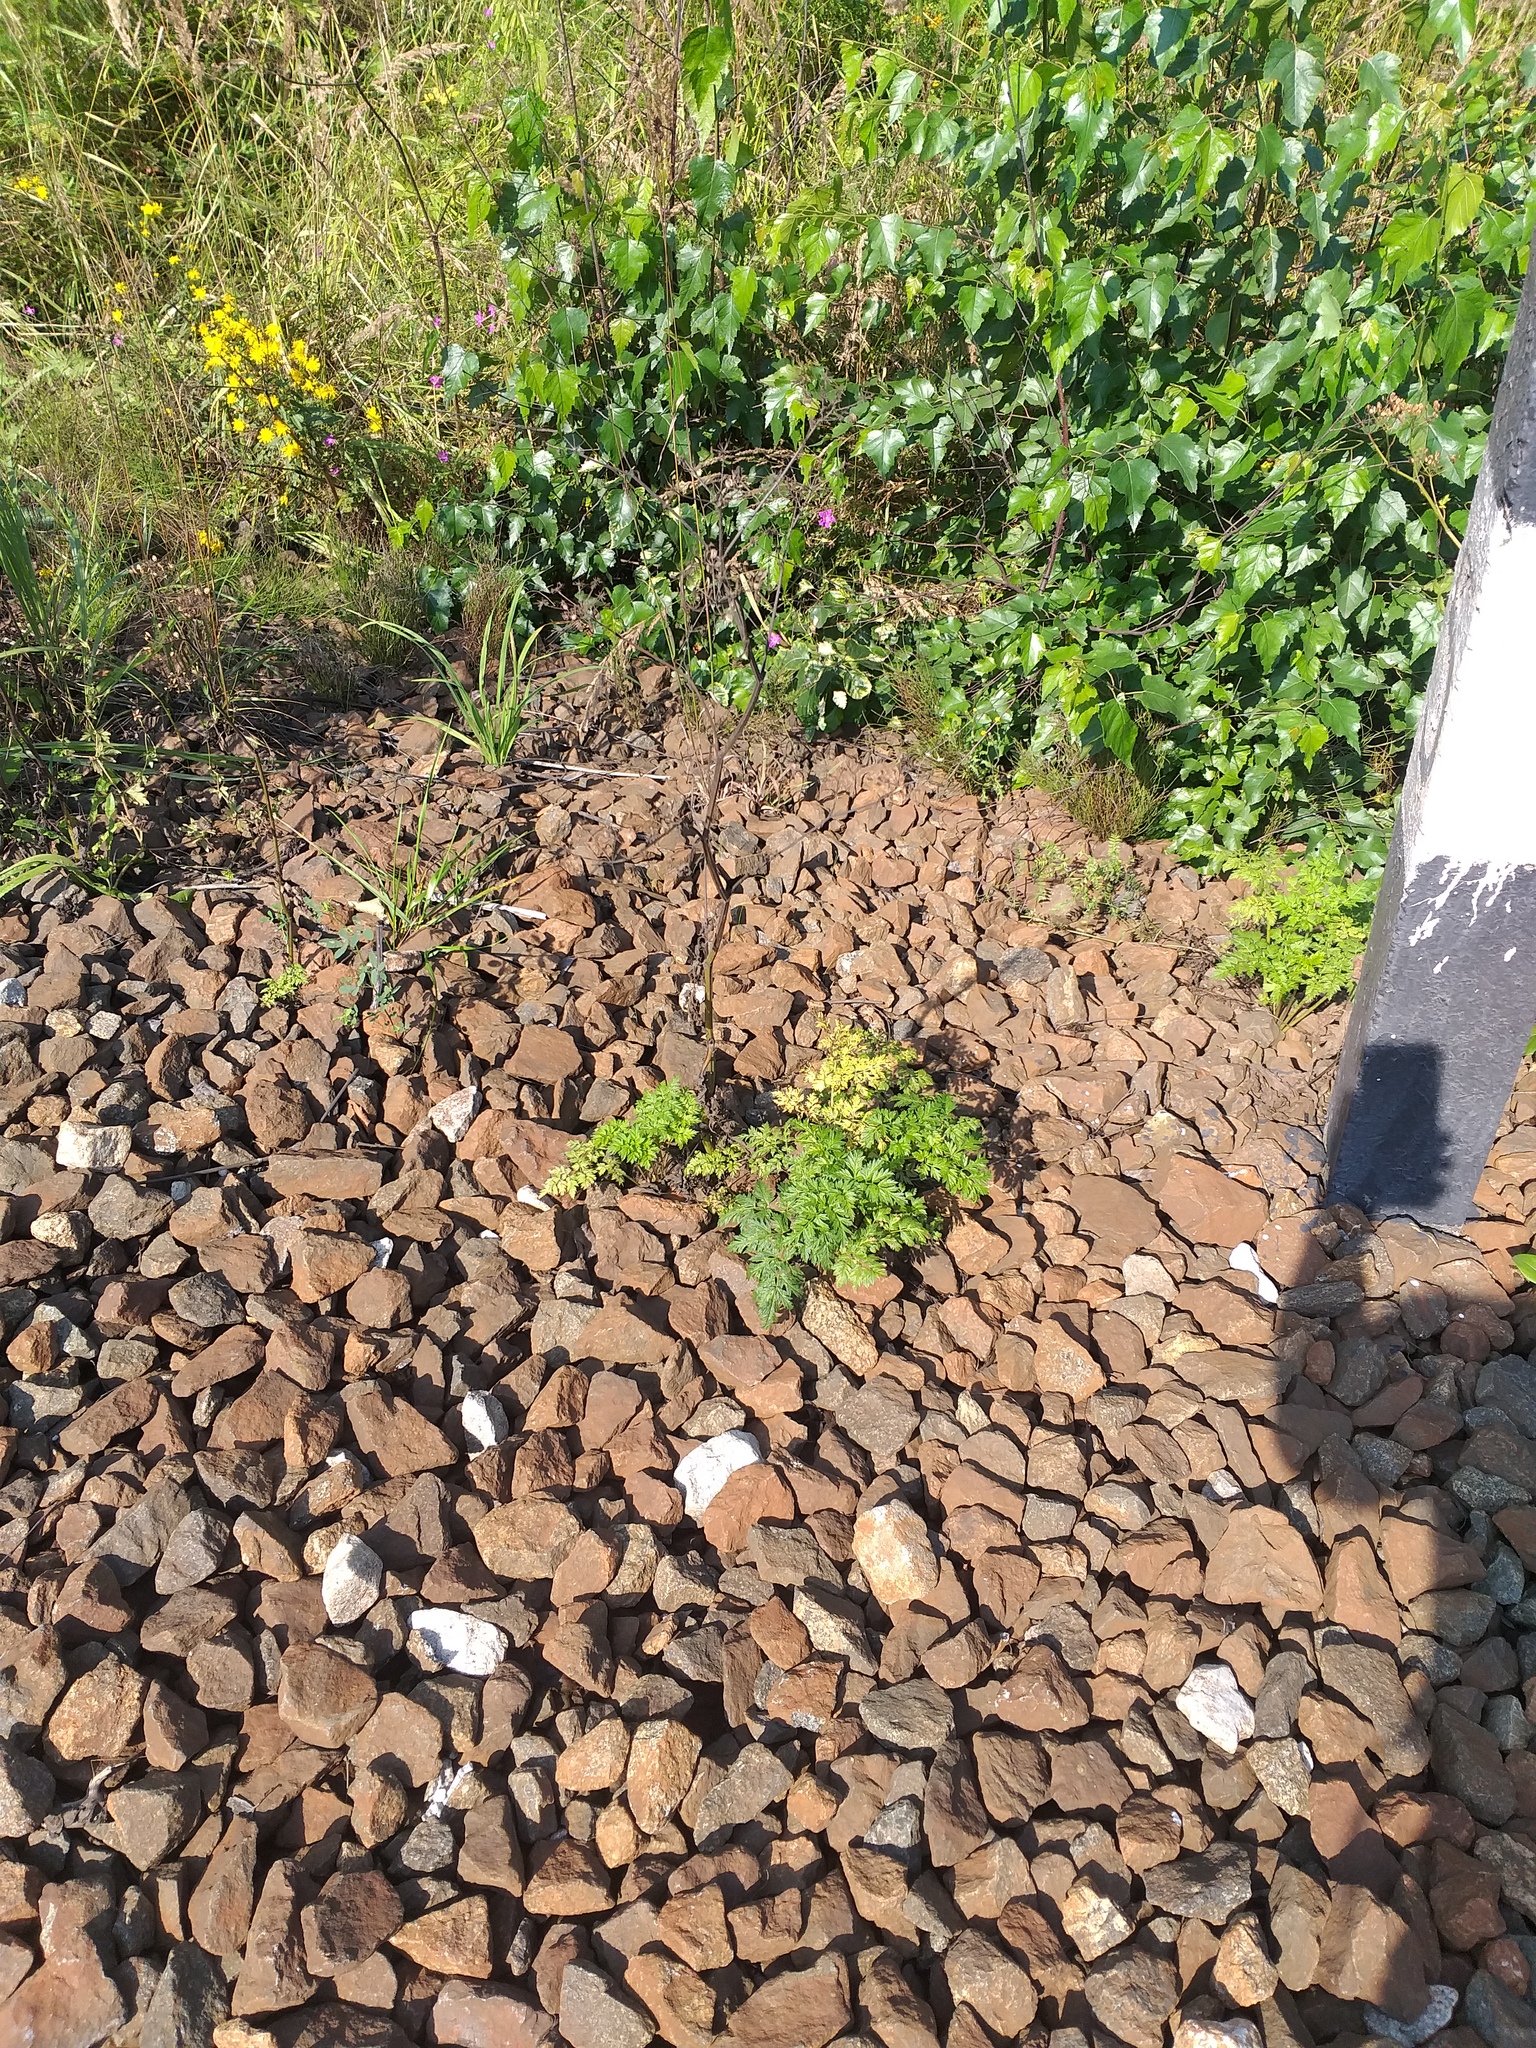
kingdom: Plantae
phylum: Tracheophyta
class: Magnoliopsida
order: Apiales
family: Apiaceae
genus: Anthriscus
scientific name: Anthriscus sylvestris
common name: Cow parsley
